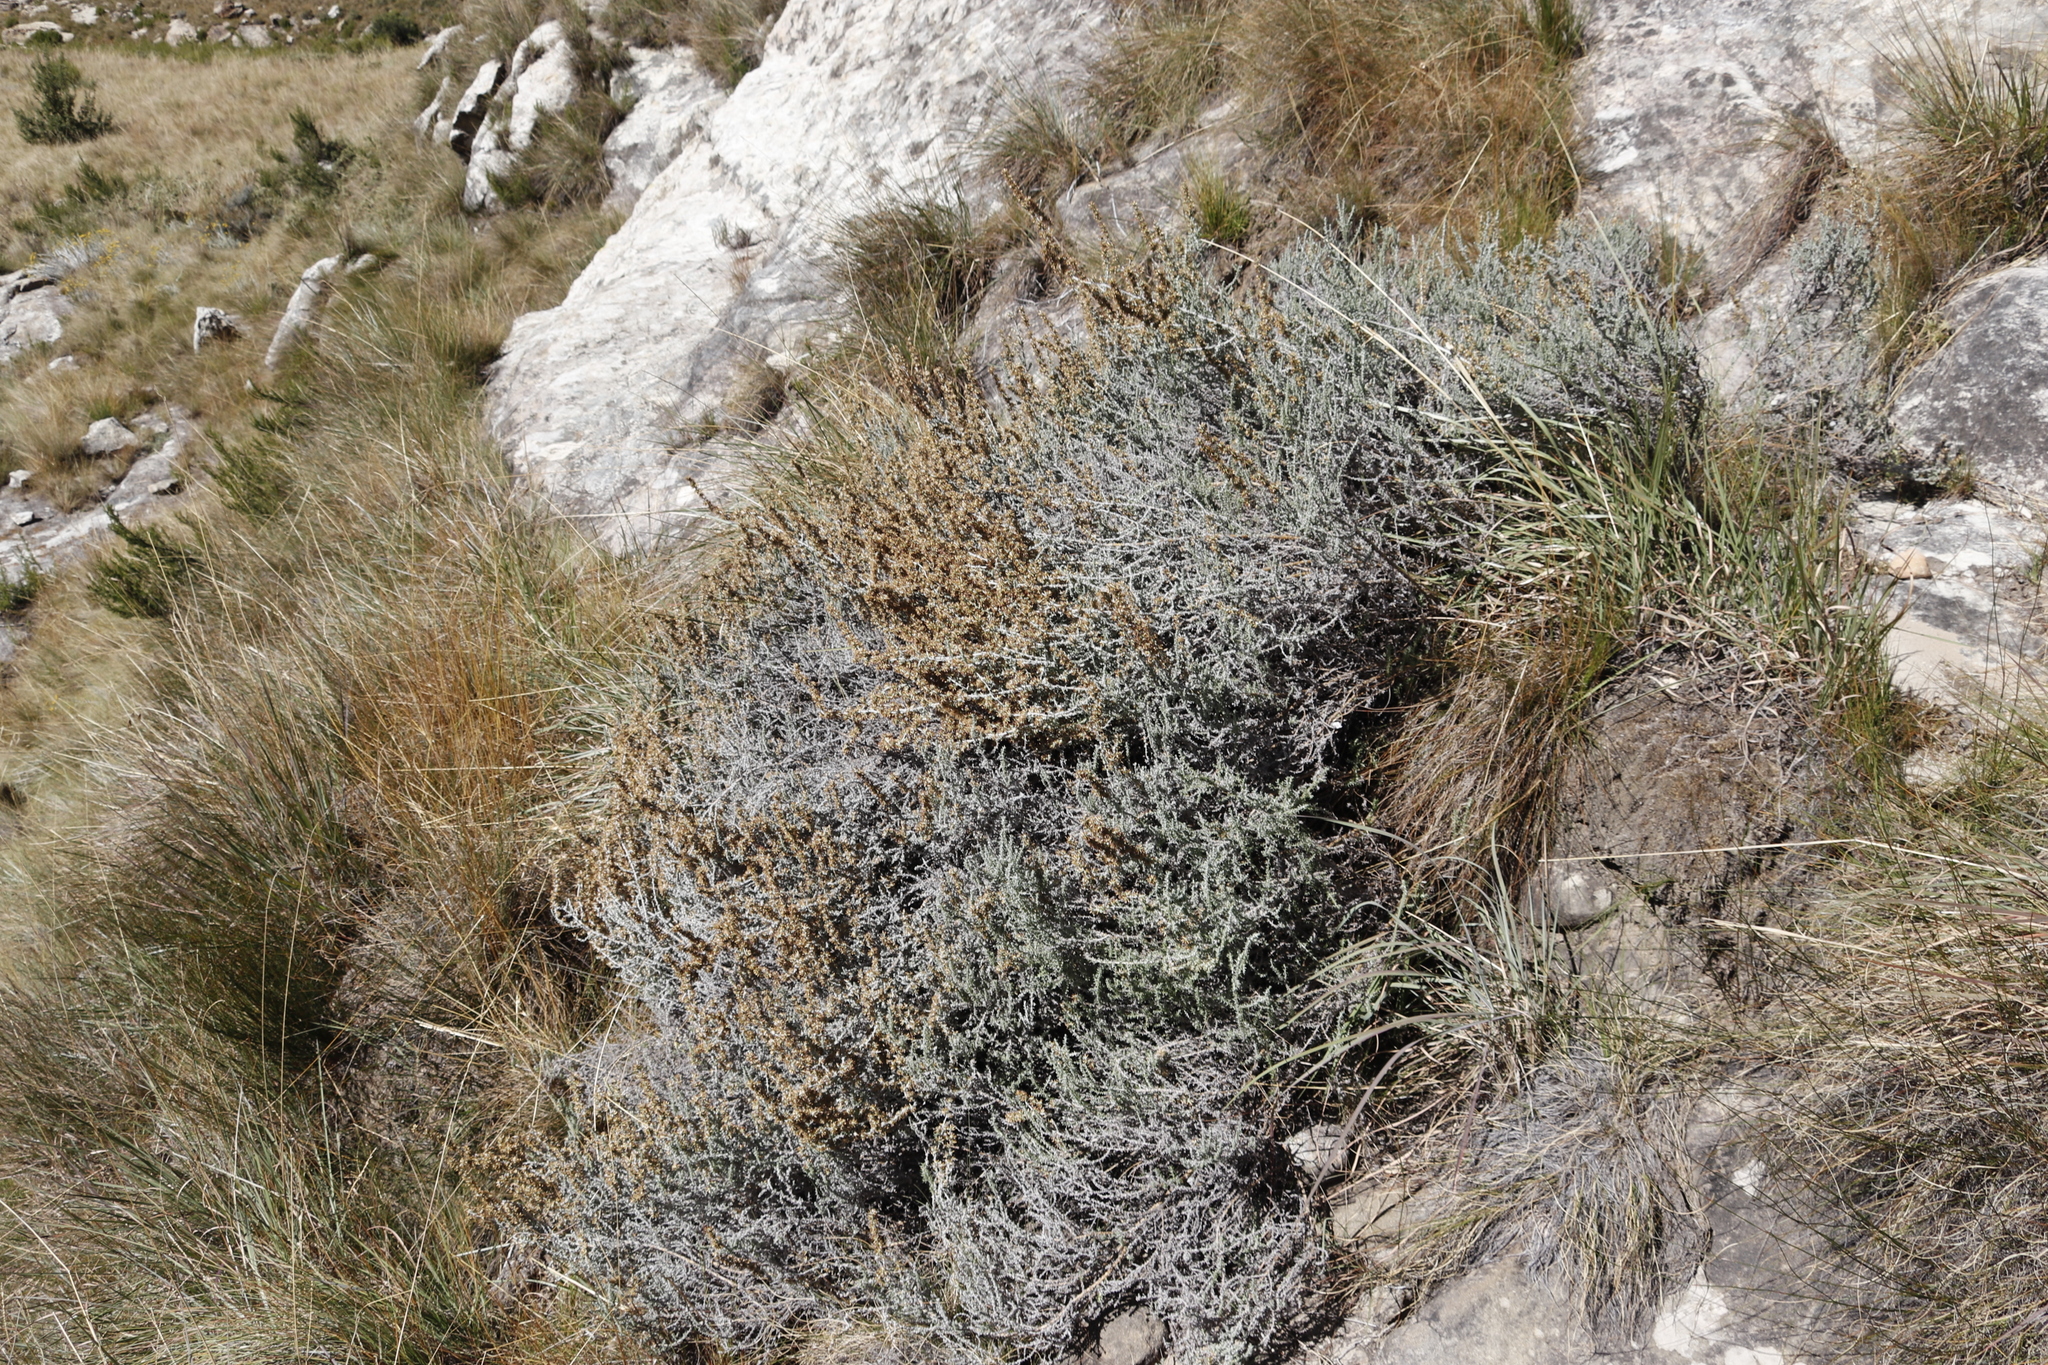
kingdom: Plantae
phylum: Tracheophyta
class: Magnoliopsida
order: Asterales
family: Asteraceae
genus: Seriphium
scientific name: Seriphium
